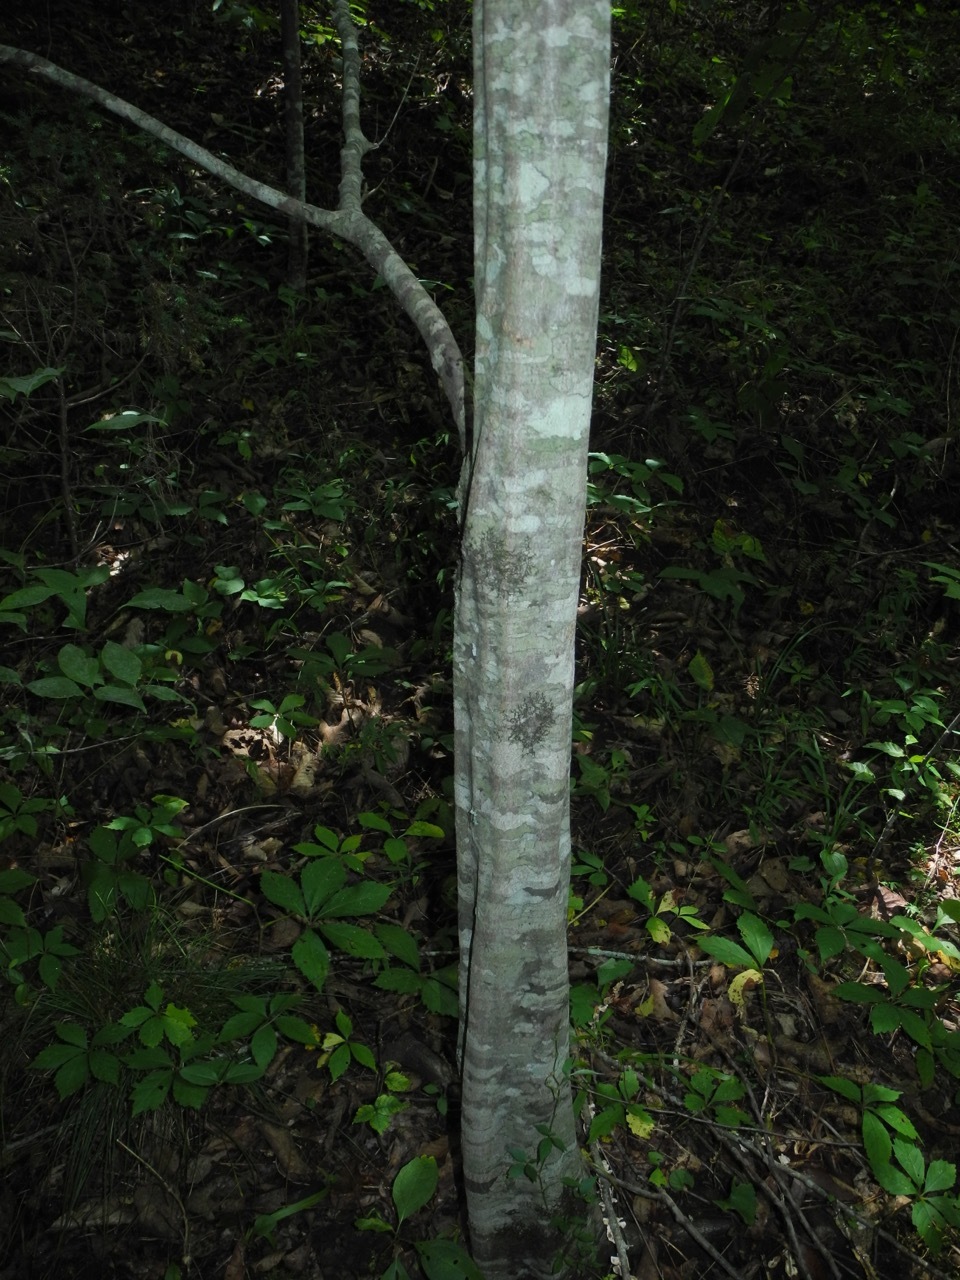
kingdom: Plantae
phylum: Tracheophyta
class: Magnoliopsida
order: Fagales
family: Betulaceae
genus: Carpinus
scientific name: Carpinus caroliniana
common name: American hornbeam
